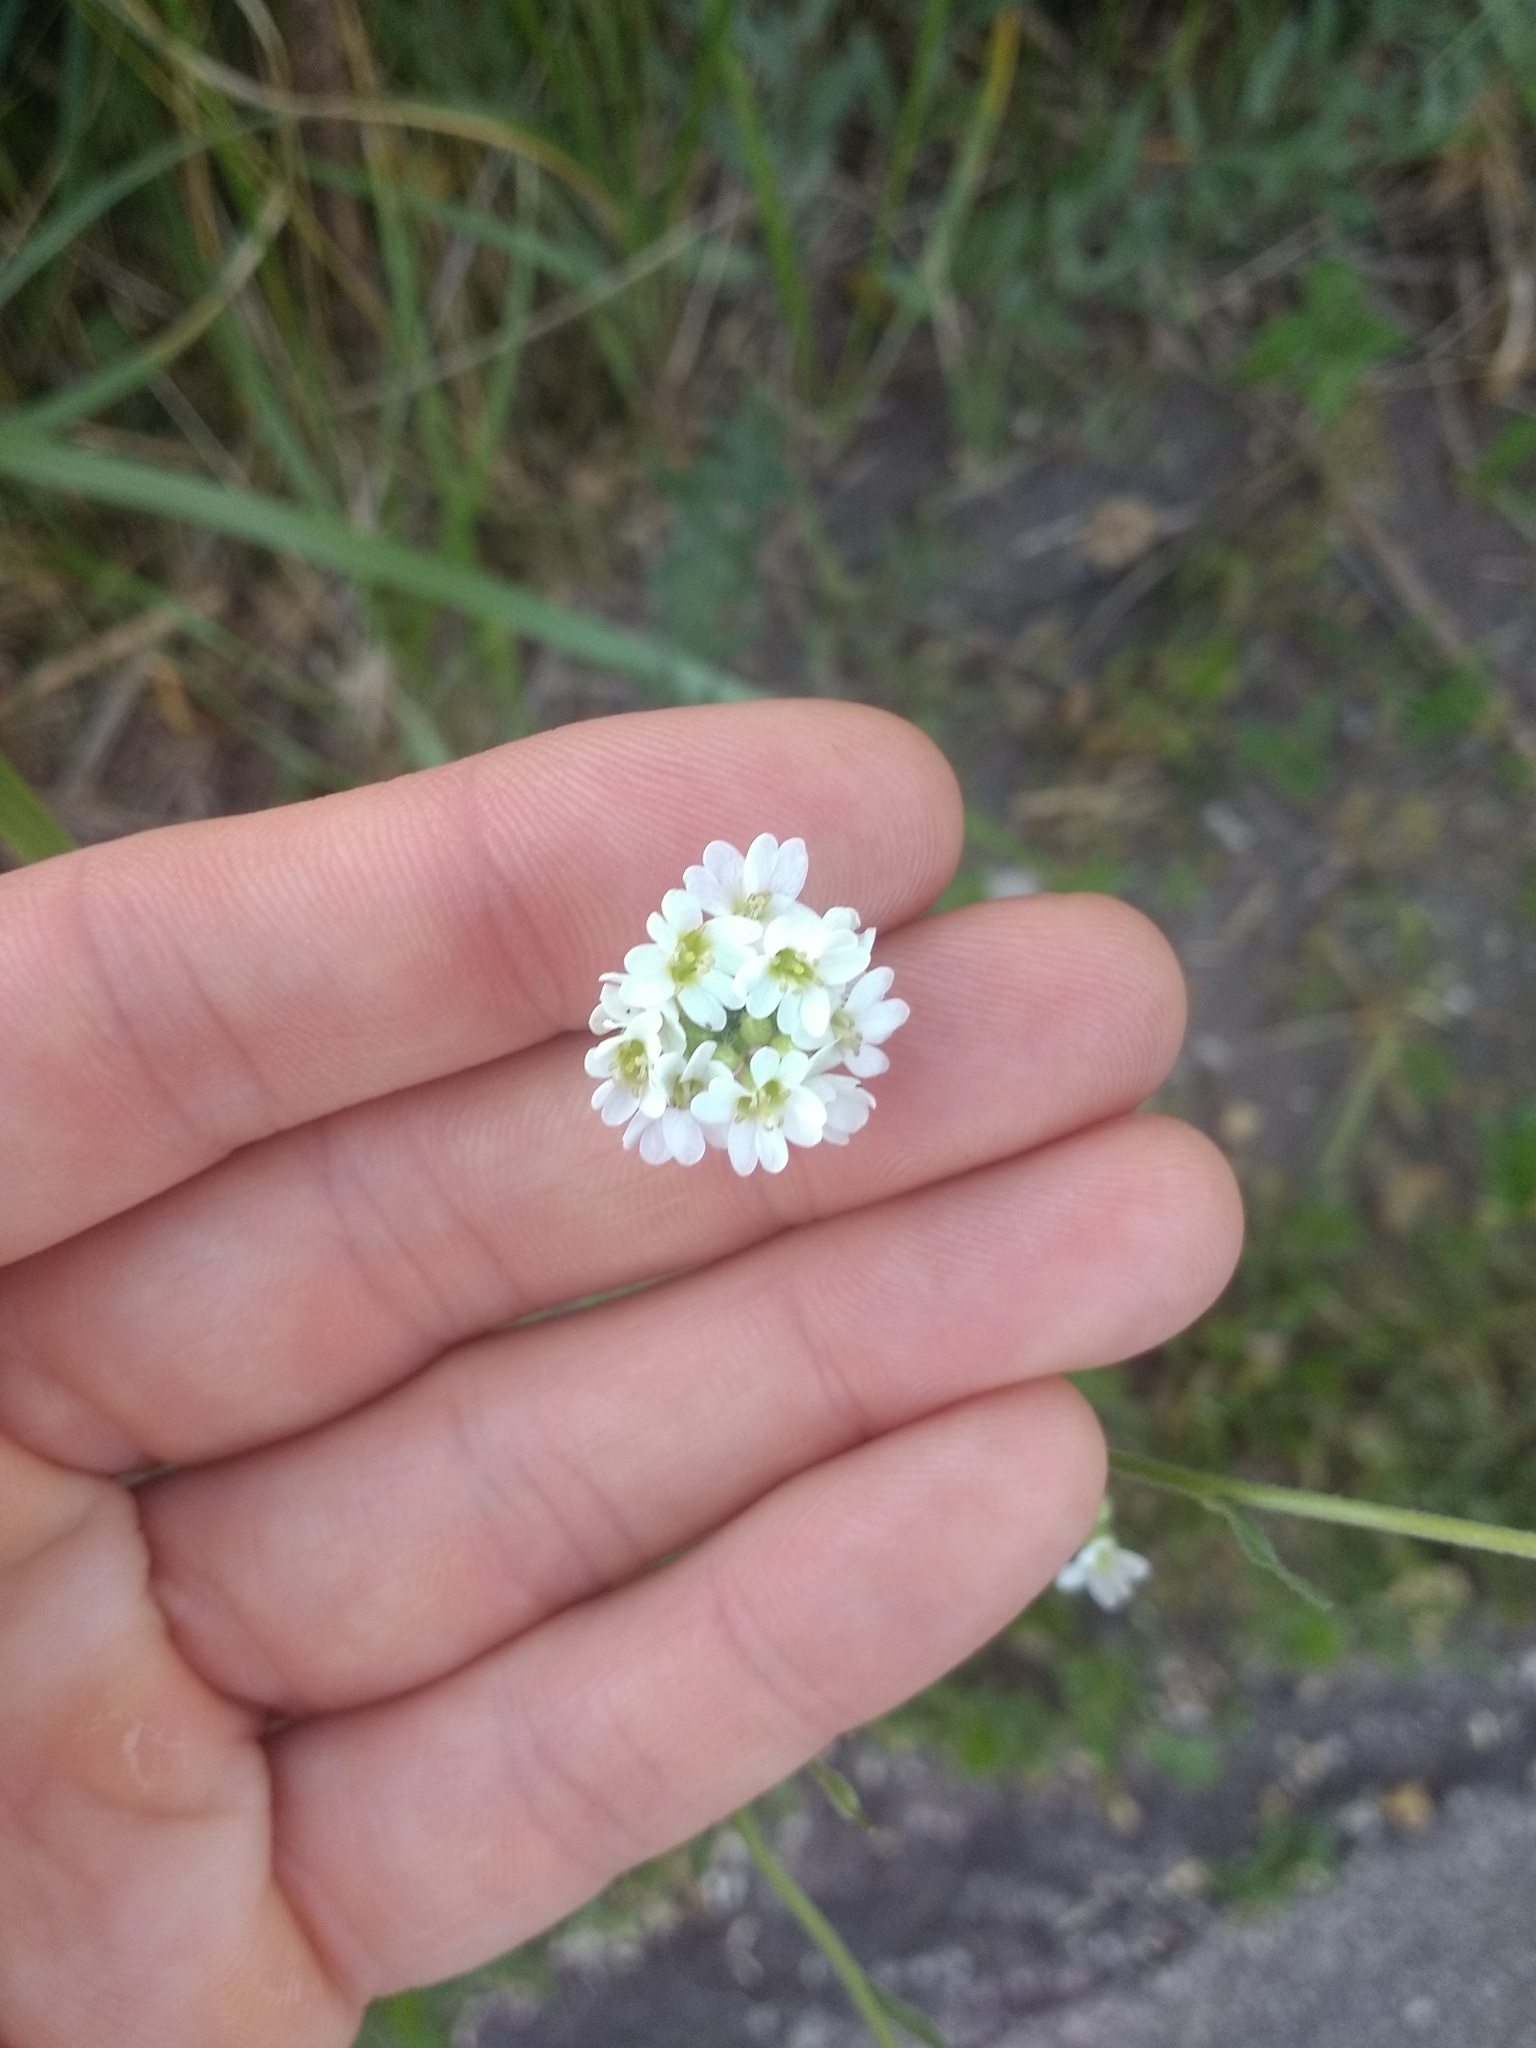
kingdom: Plantae
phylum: Tracheophyta
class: Magnoliopsida
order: Brassicales
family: Brassicaceae
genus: Berteroa
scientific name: Berteroa incana
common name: Hoary alison
